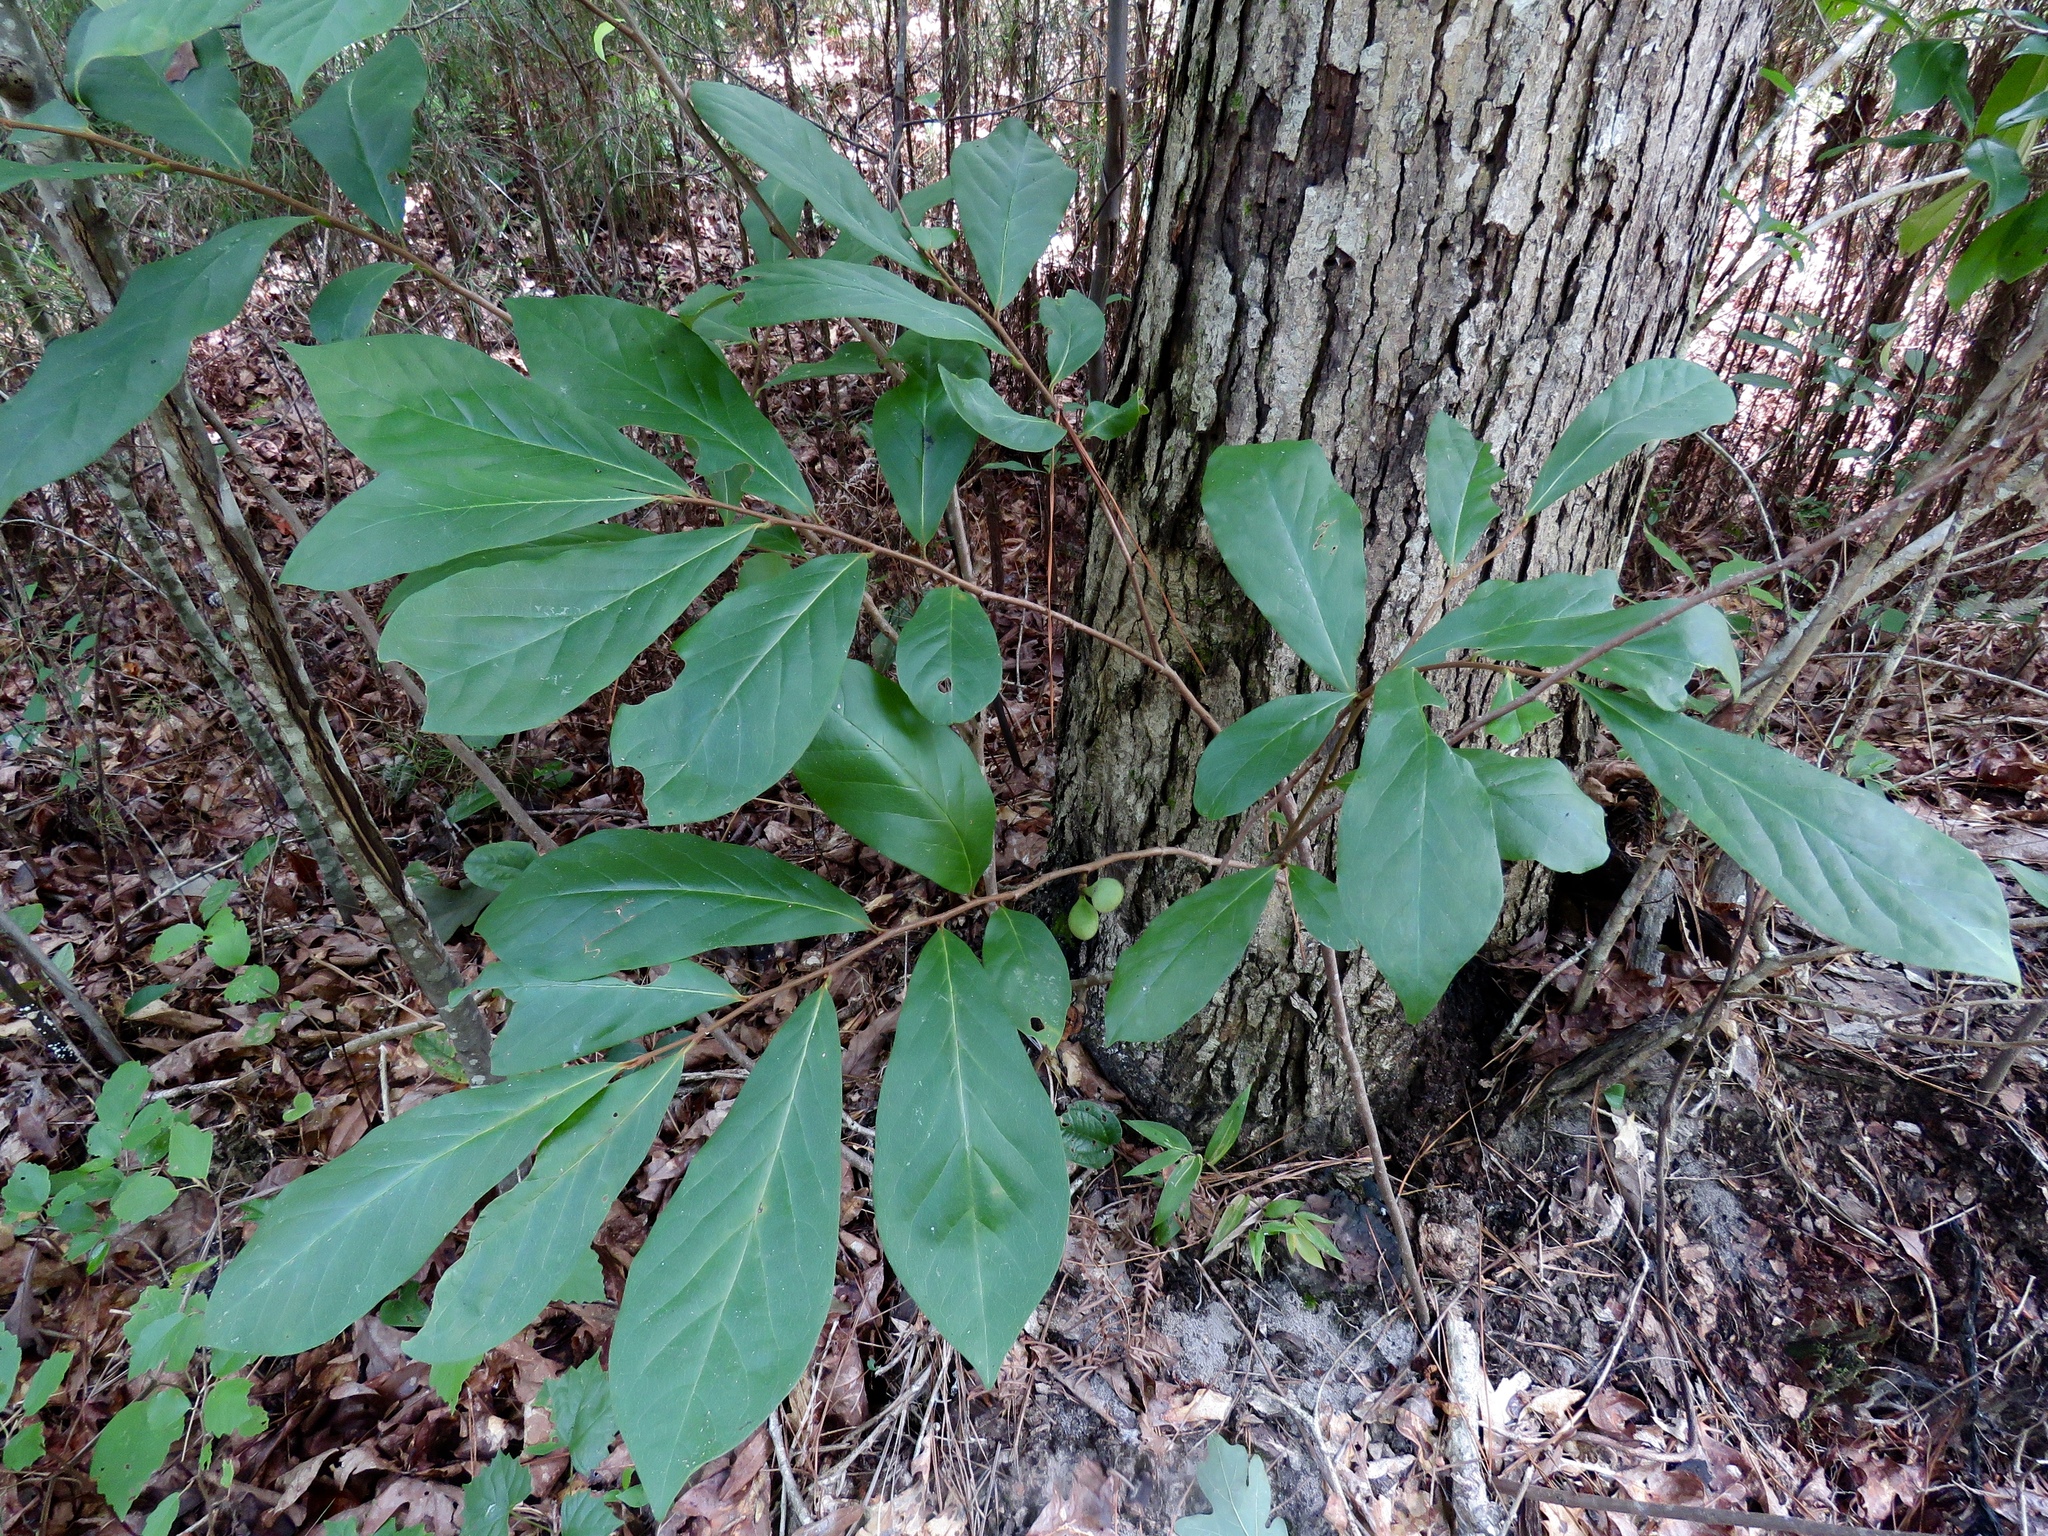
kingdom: Plantae
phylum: Tracheophyta
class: Magnoliopsida
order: Magnoliales
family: Annonaceae
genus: Asimina
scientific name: Asimina parviflora
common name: Dwarf pawpaw
